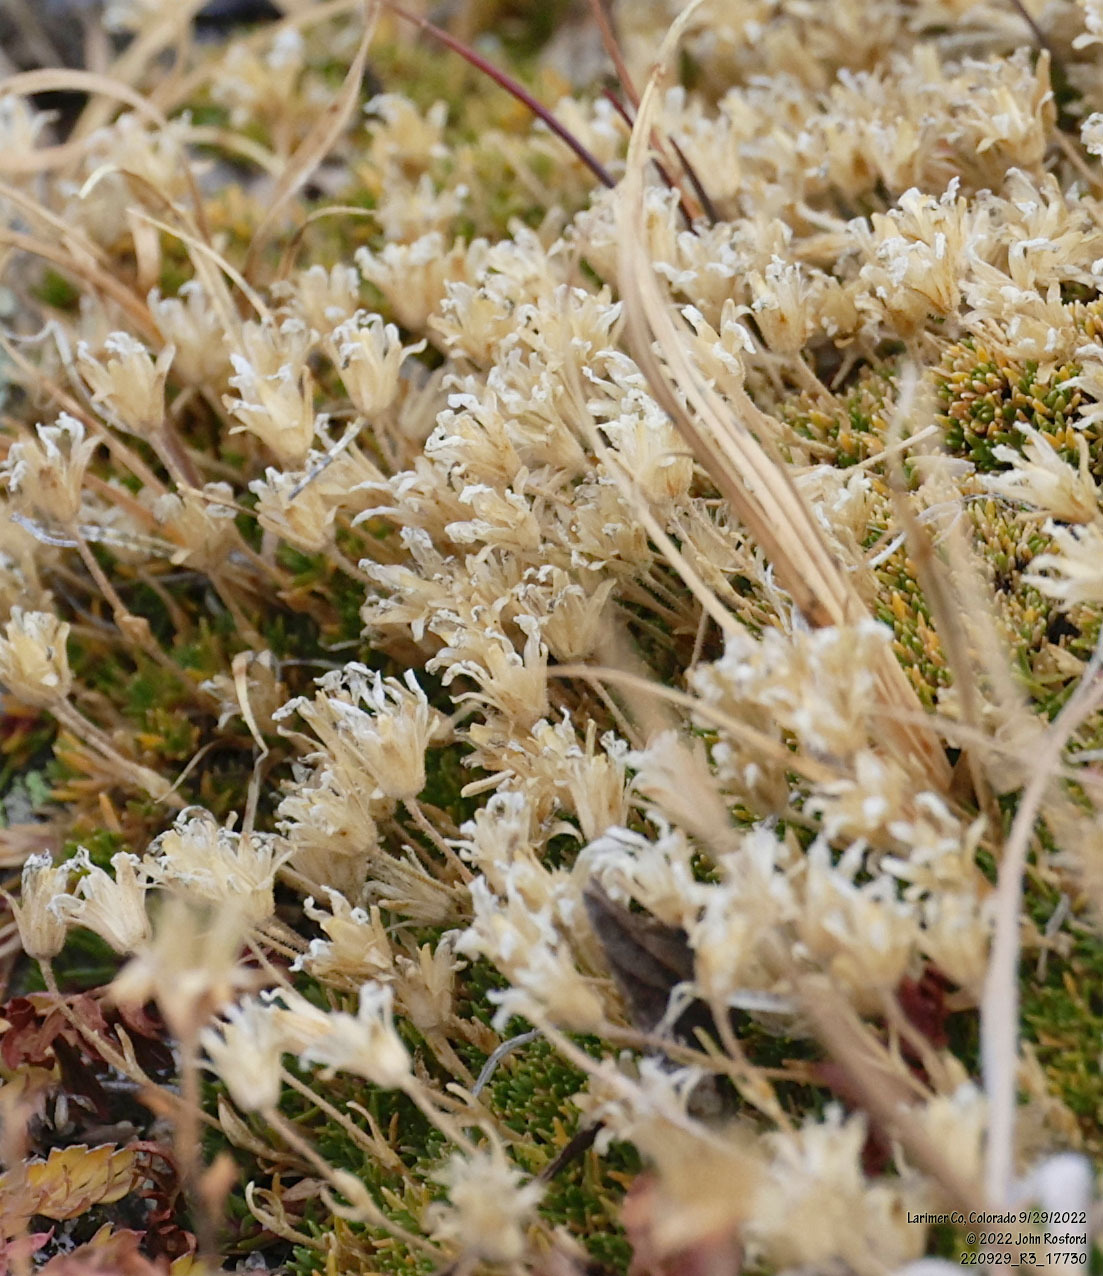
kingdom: Plantae
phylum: Tracheophyta
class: Magnoliopsida
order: Caryophyllales
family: Caryophyllaceae
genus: Cherleria
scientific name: Cherleria obtusiloba
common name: Alpine stitchwort
